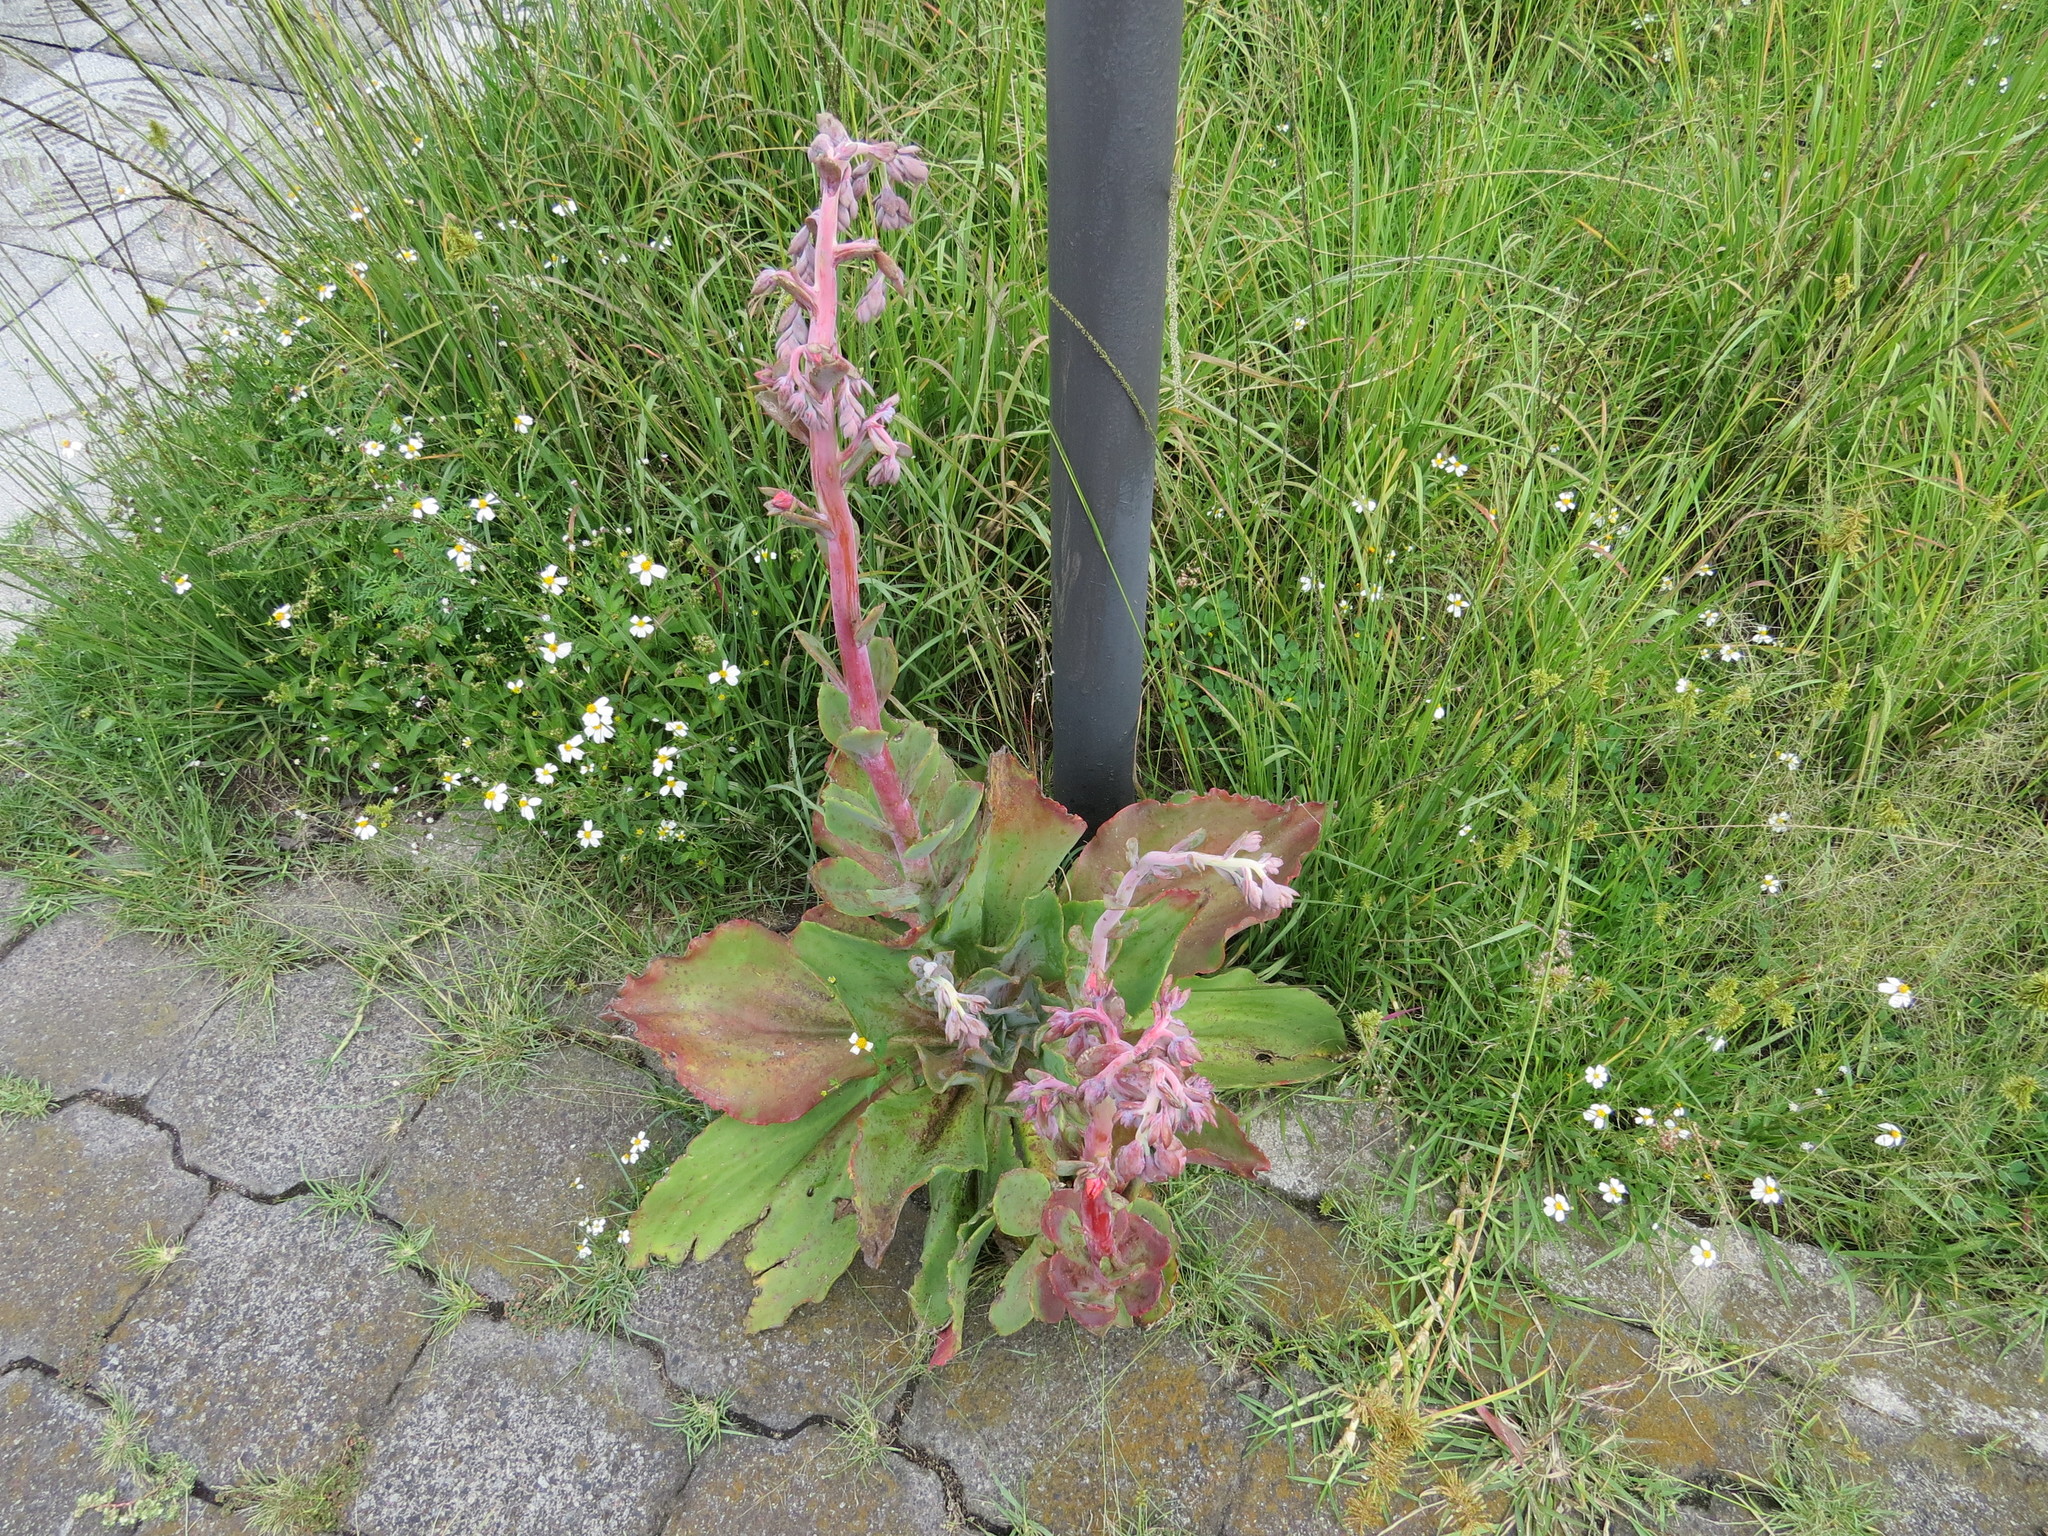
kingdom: Plantae
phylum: Tracheophyta
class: Magnoliopsida
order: Saxifragales
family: Crassulaceae
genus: Echeveria
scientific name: Echeveria gibbiflora
